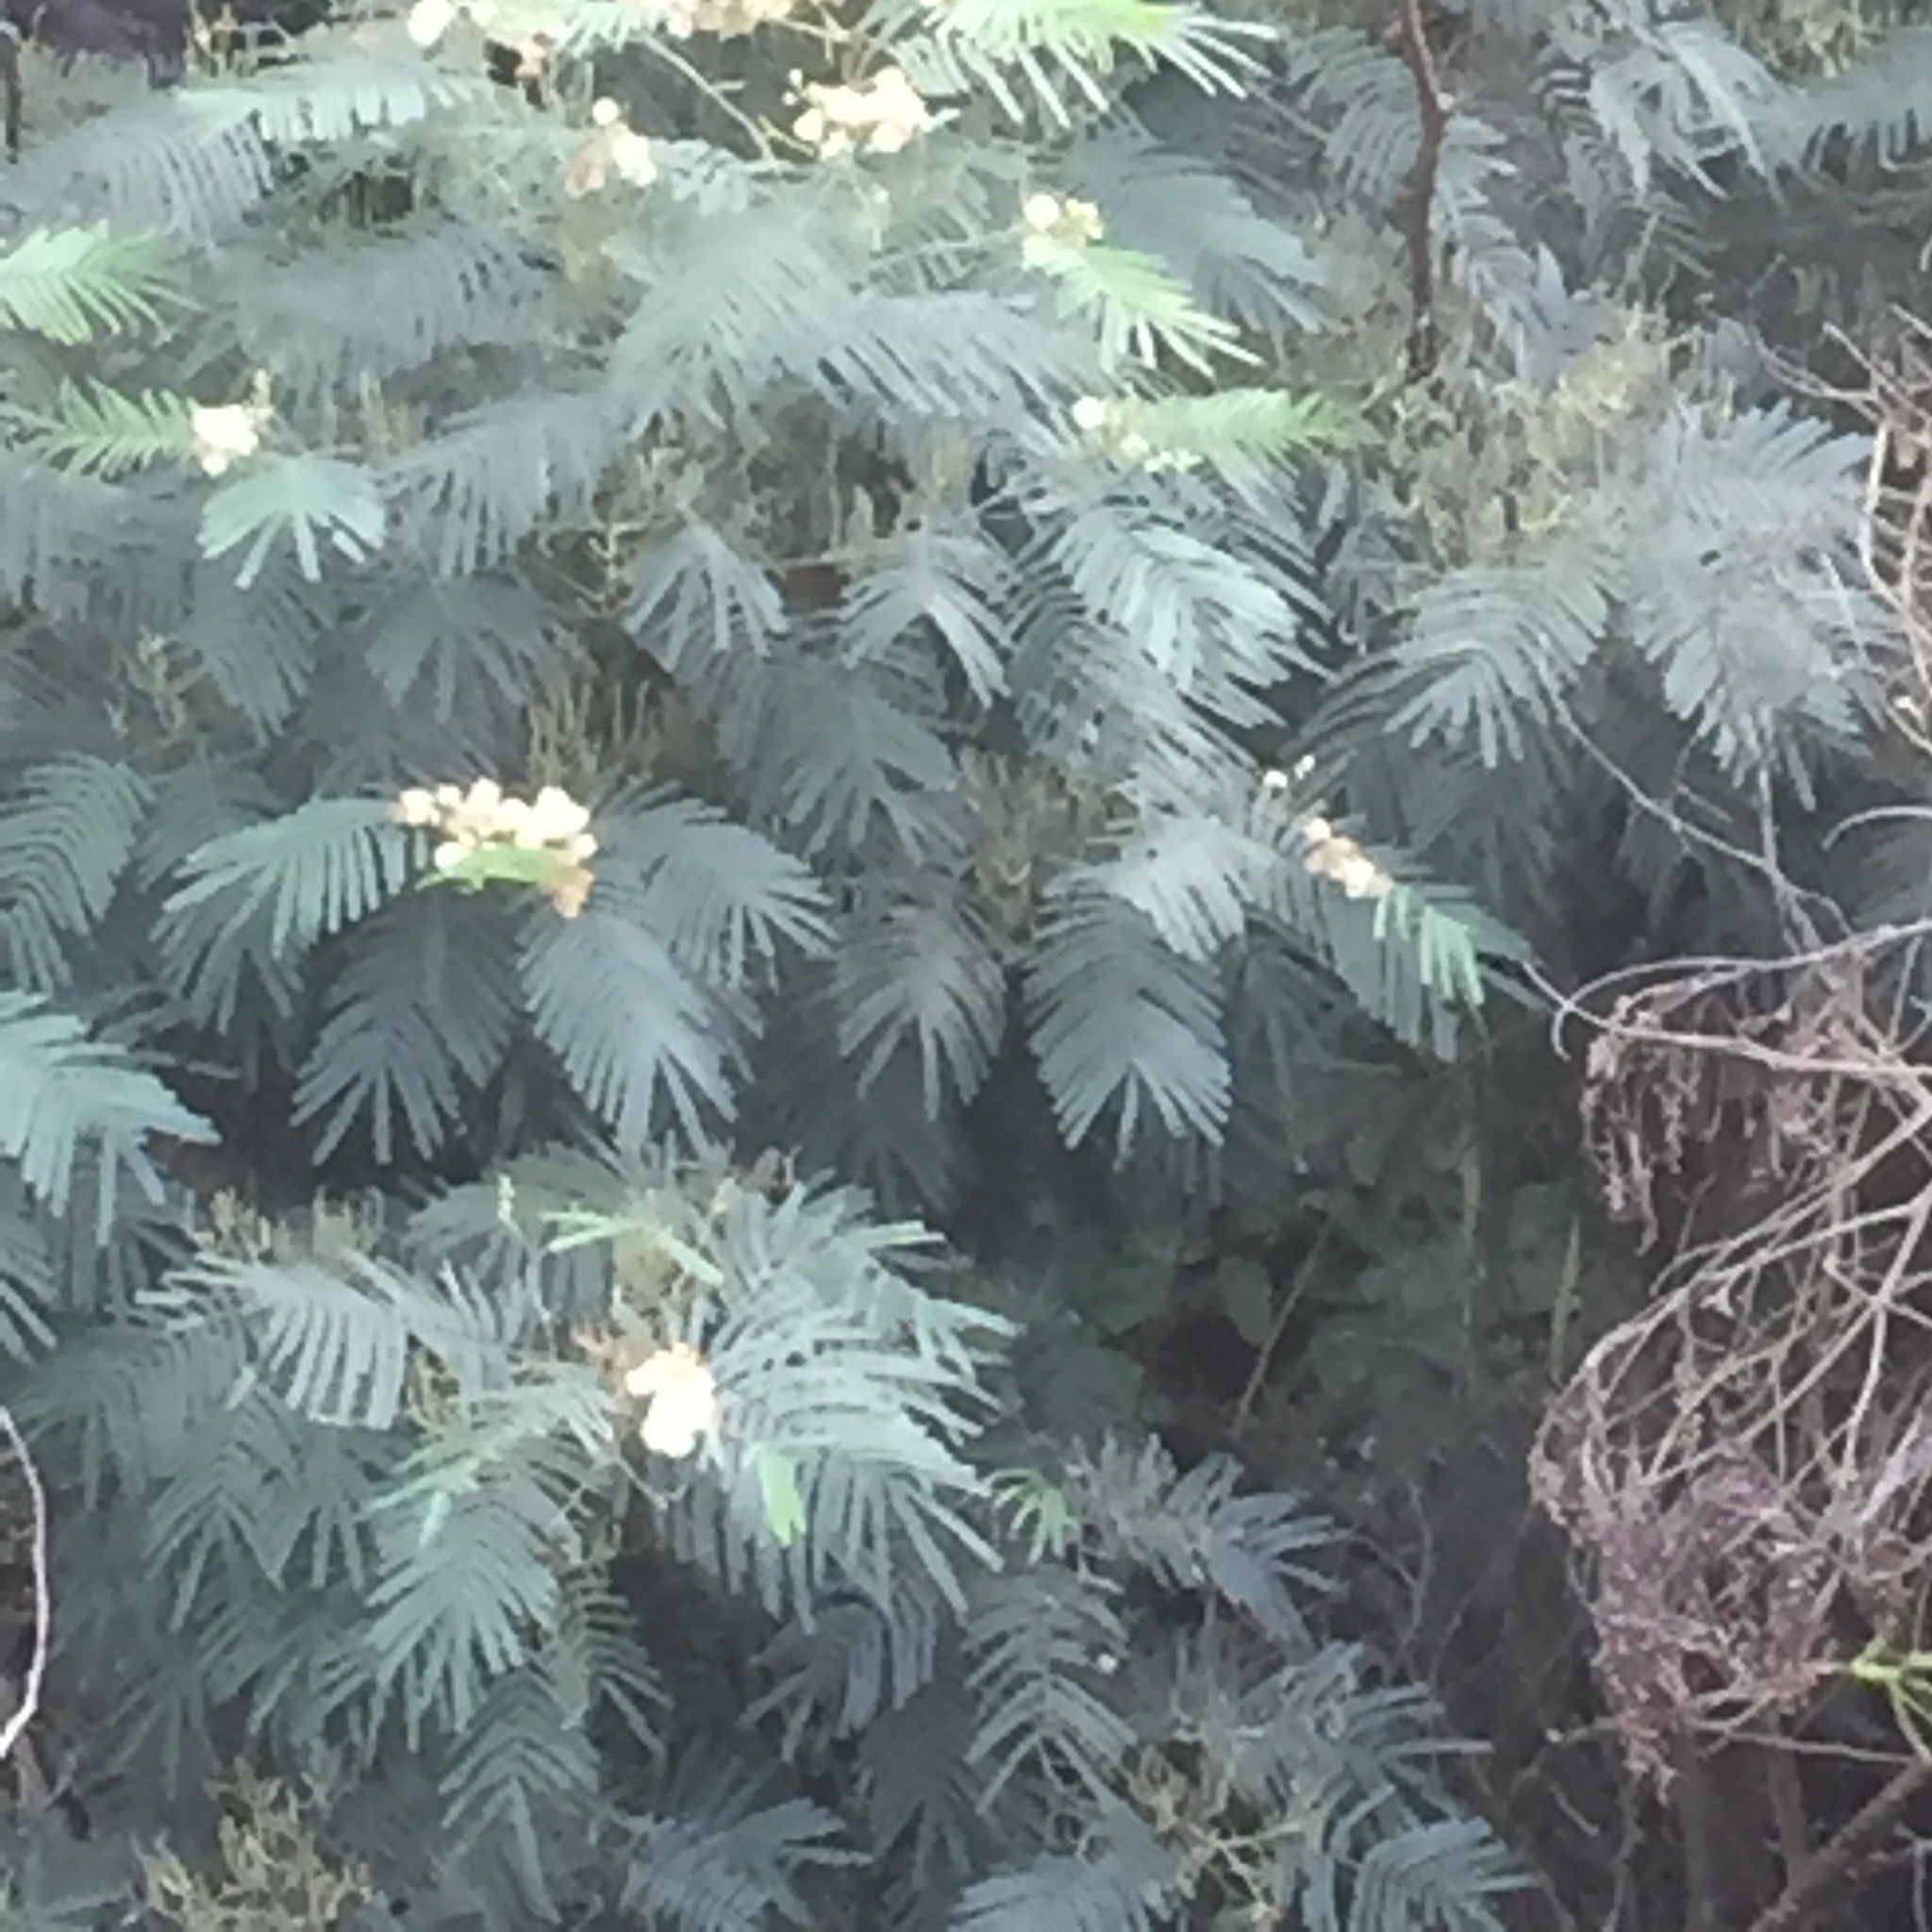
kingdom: Plantae
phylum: Tracheophyta
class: Magnoliopsida
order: Fabales
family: Fabaceae
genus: Paraserianthes
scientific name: Paraserianthes lophantha
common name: Plume albizia
